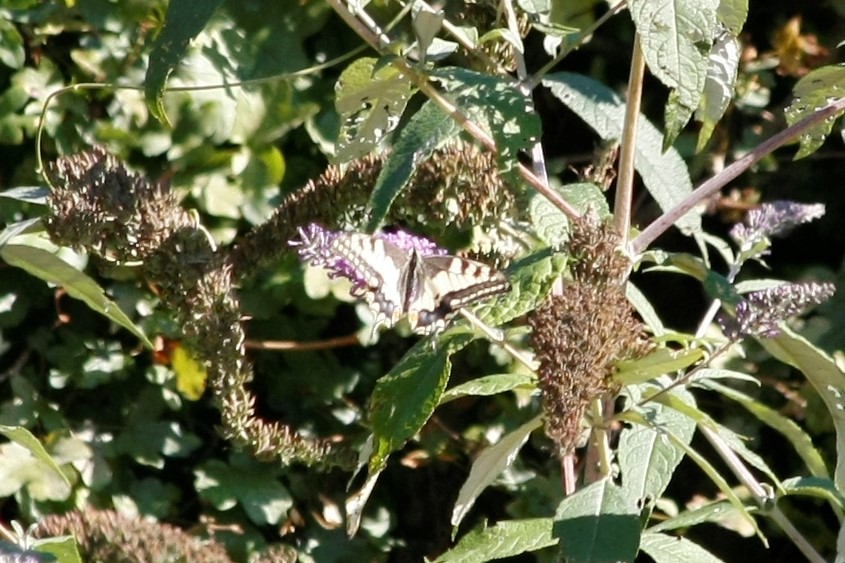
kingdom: Animalia
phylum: Arthropoda
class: Insecta
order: Lepidoptera
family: Papilionidae
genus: Papilio
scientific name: Papilio machaon
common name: Swallowtail
